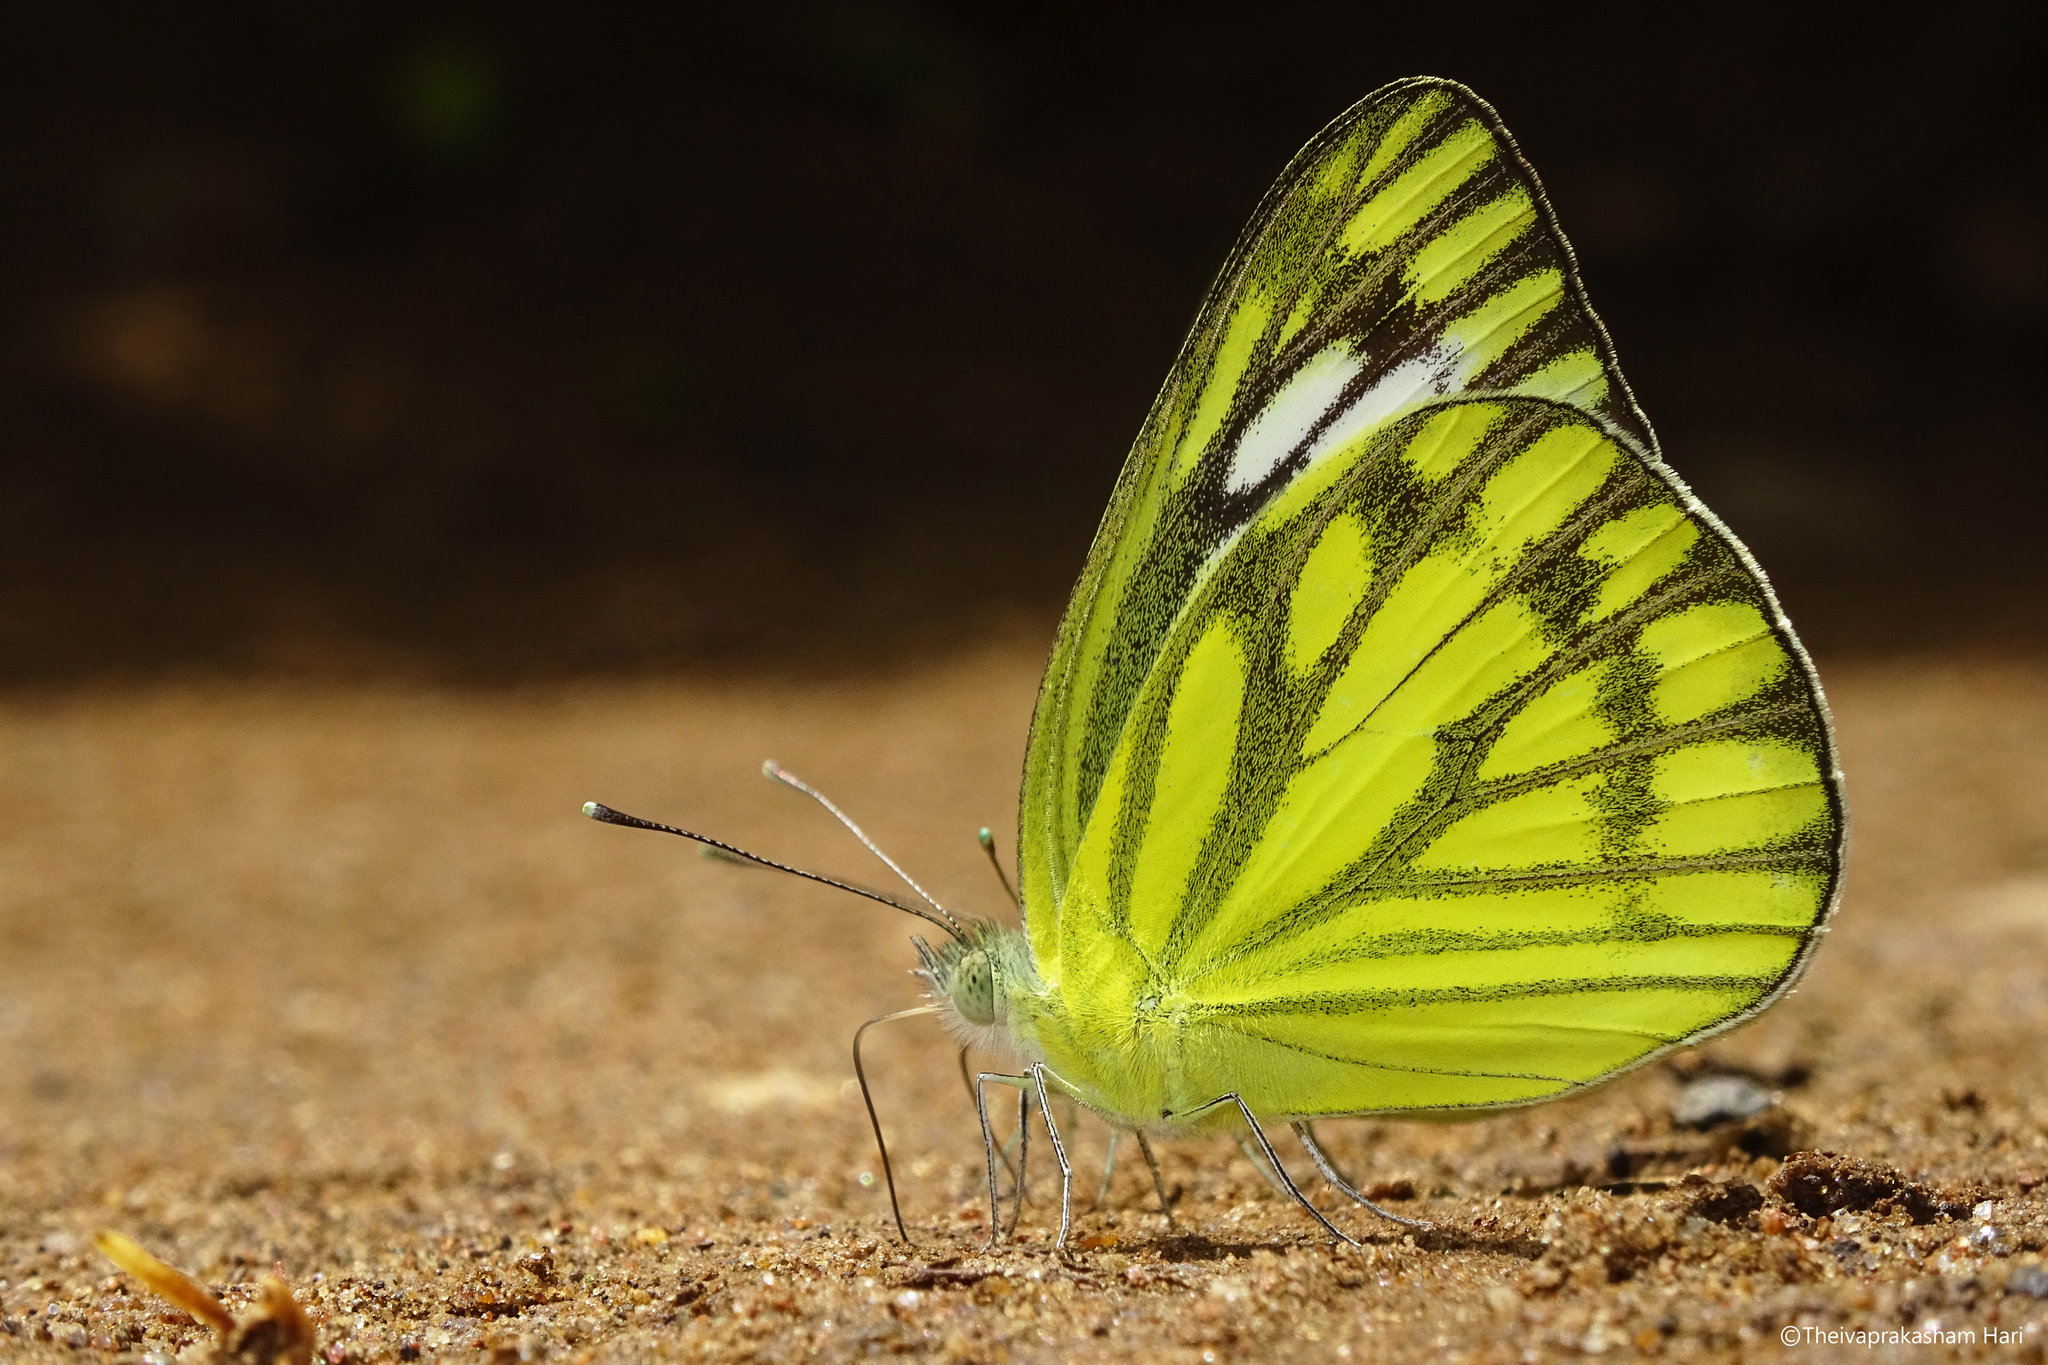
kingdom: Animalia
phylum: Arthropoda
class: Insecta
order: Lepidoptera
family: Pieridae
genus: Cepora
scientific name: Cepora nerissa
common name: Common gull
